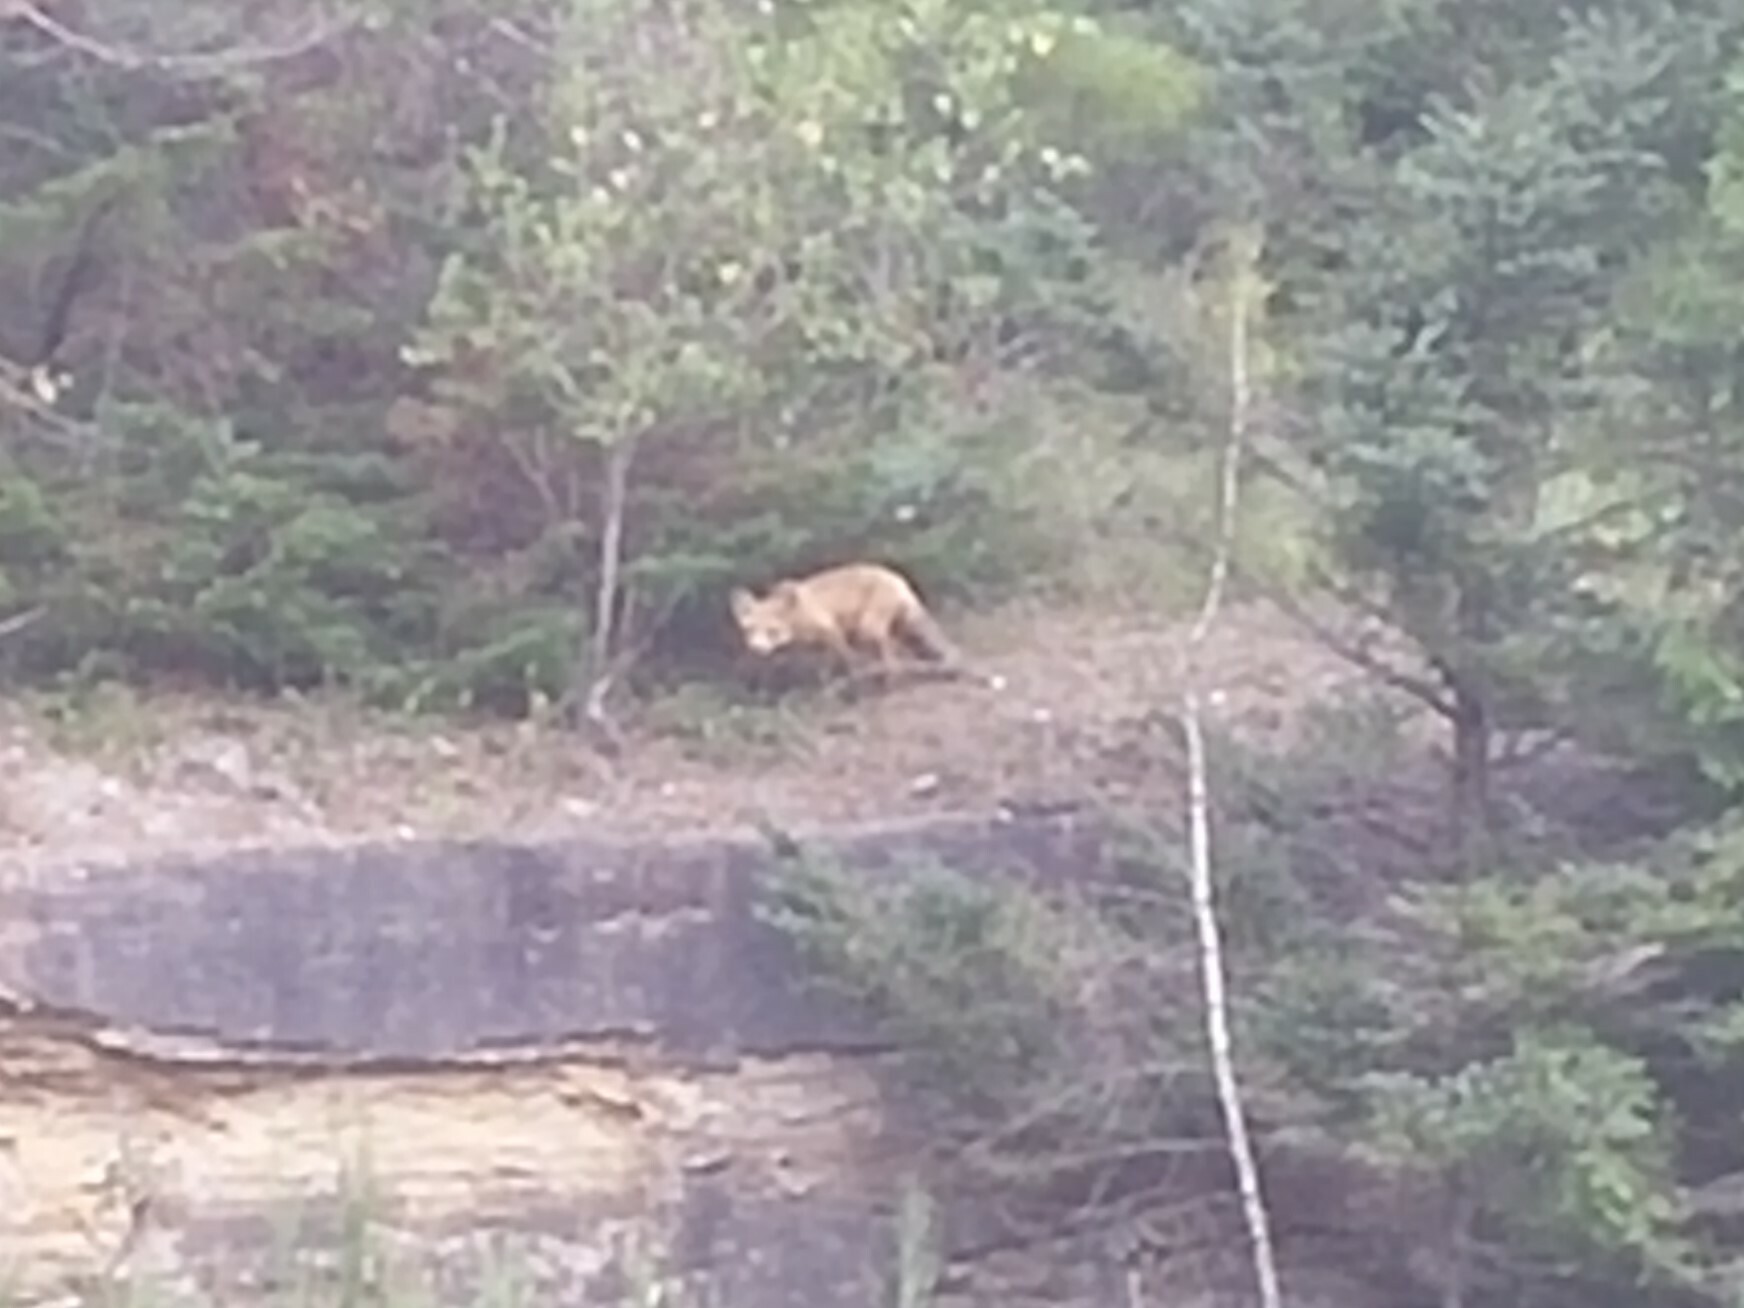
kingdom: Animalia
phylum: Chordata
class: Mammalia
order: Carnivora
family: Canidae
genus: Vulpes
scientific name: Vulpes vulpes
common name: Red fox
